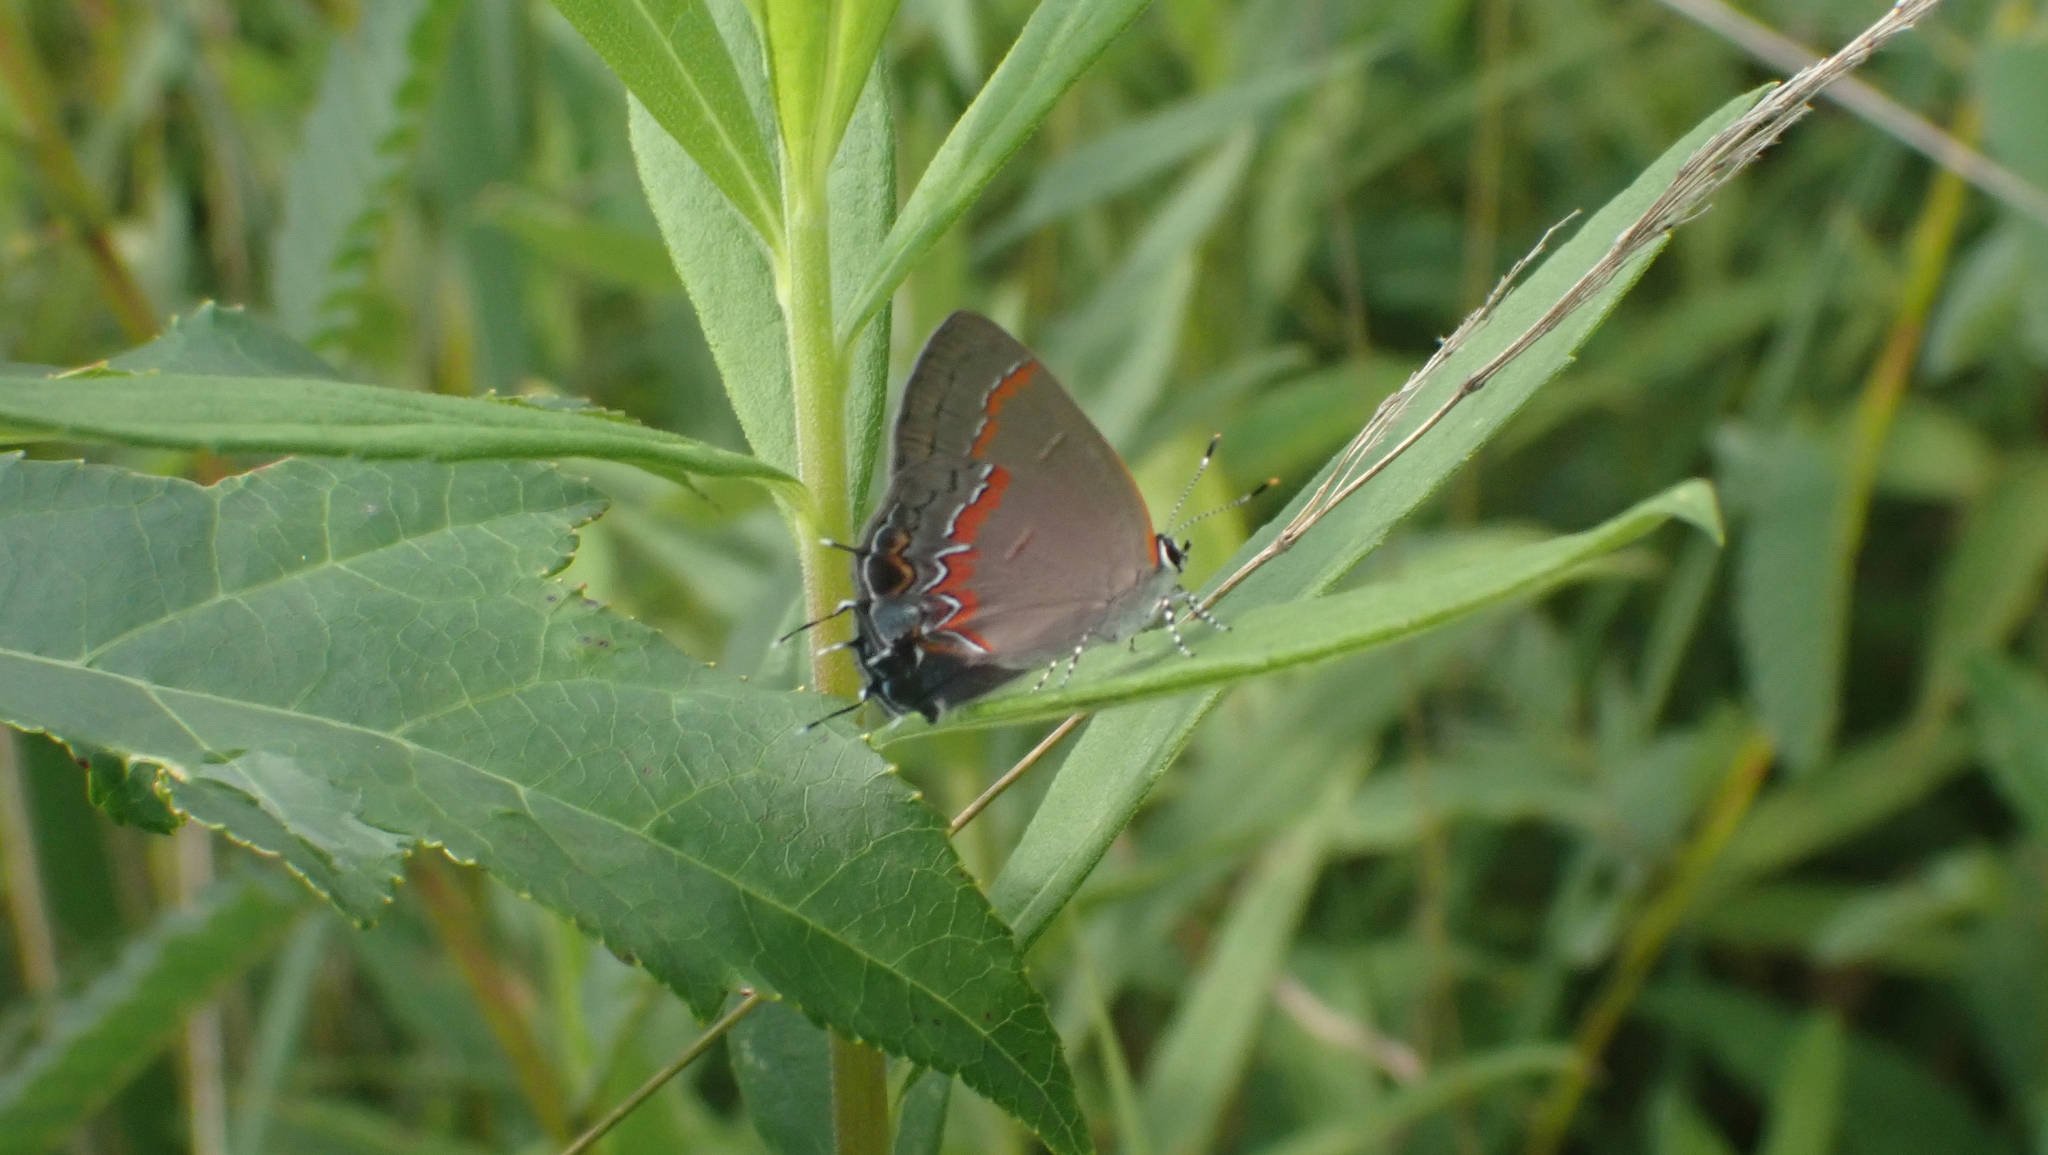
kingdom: Animalia
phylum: Arthropoda
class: Insecta
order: Lepidoptera
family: Lycaenidae
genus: Calycopis
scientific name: Calycopis cecrops
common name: Red-banded hairstreak
